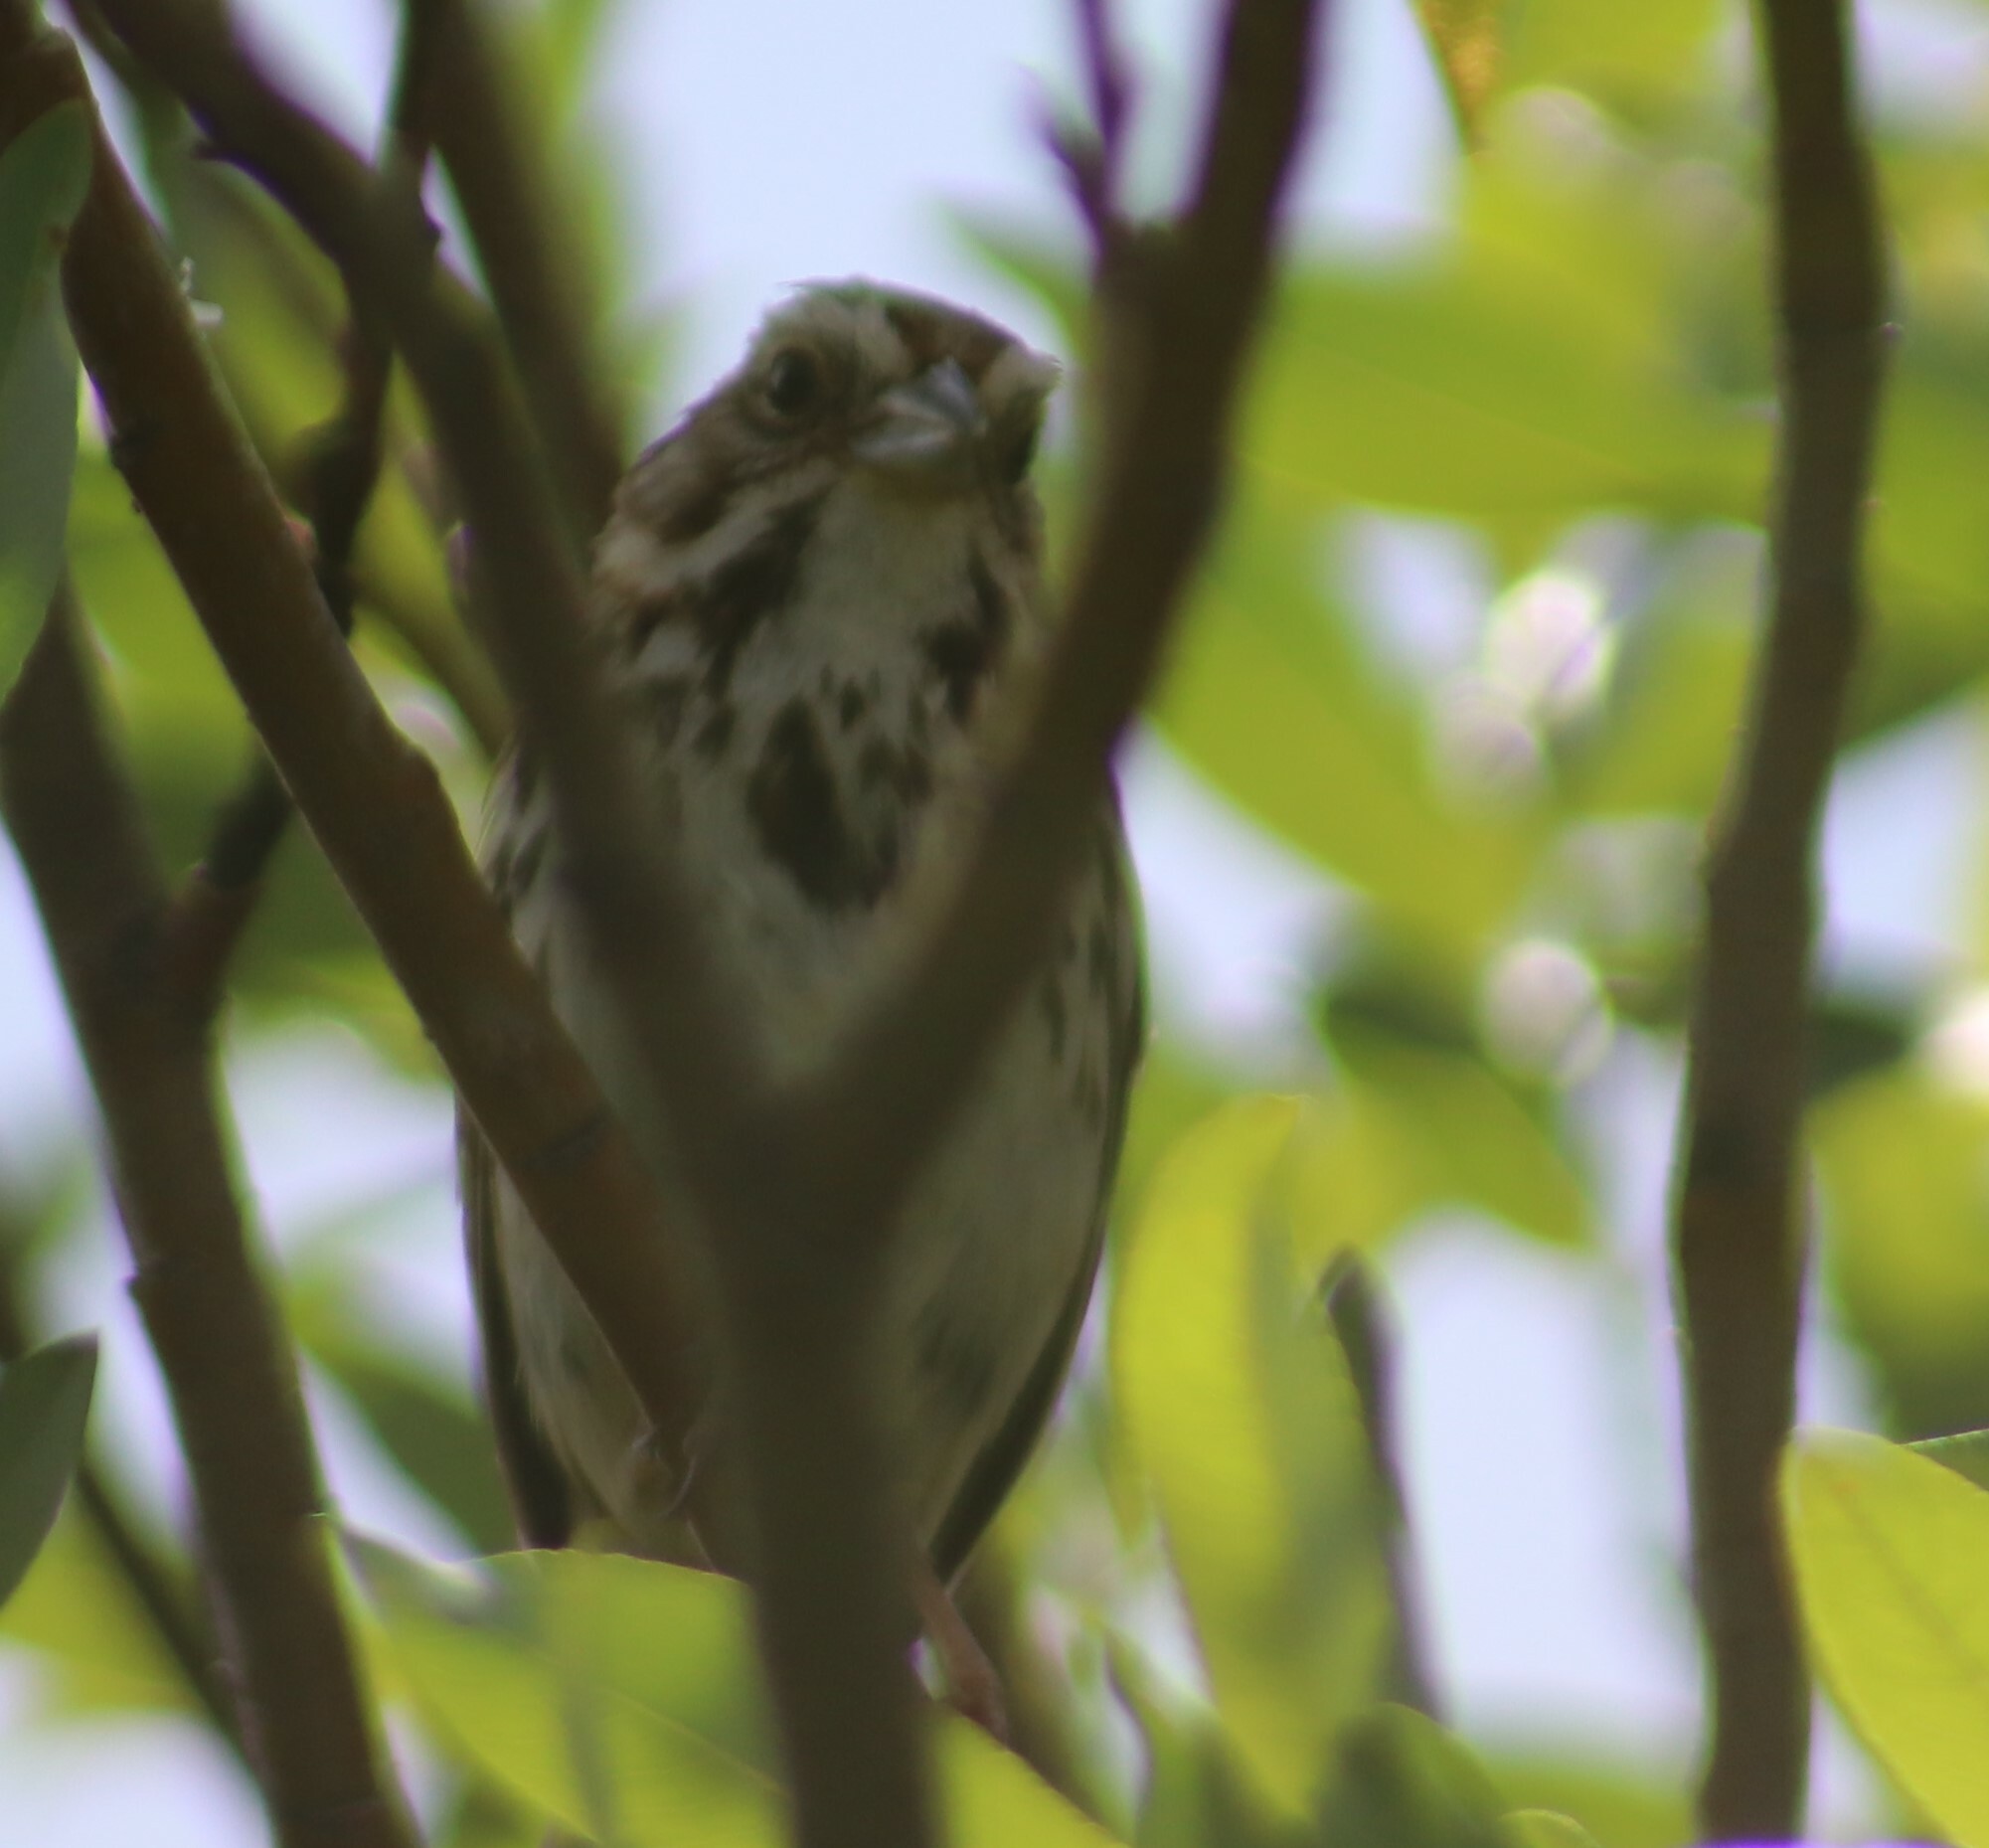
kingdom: Animalia
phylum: Chordata
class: Aves
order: Passeriformes
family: Passerellidae
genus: Melospiza
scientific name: Melospiza melodia
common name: Song sparrow
